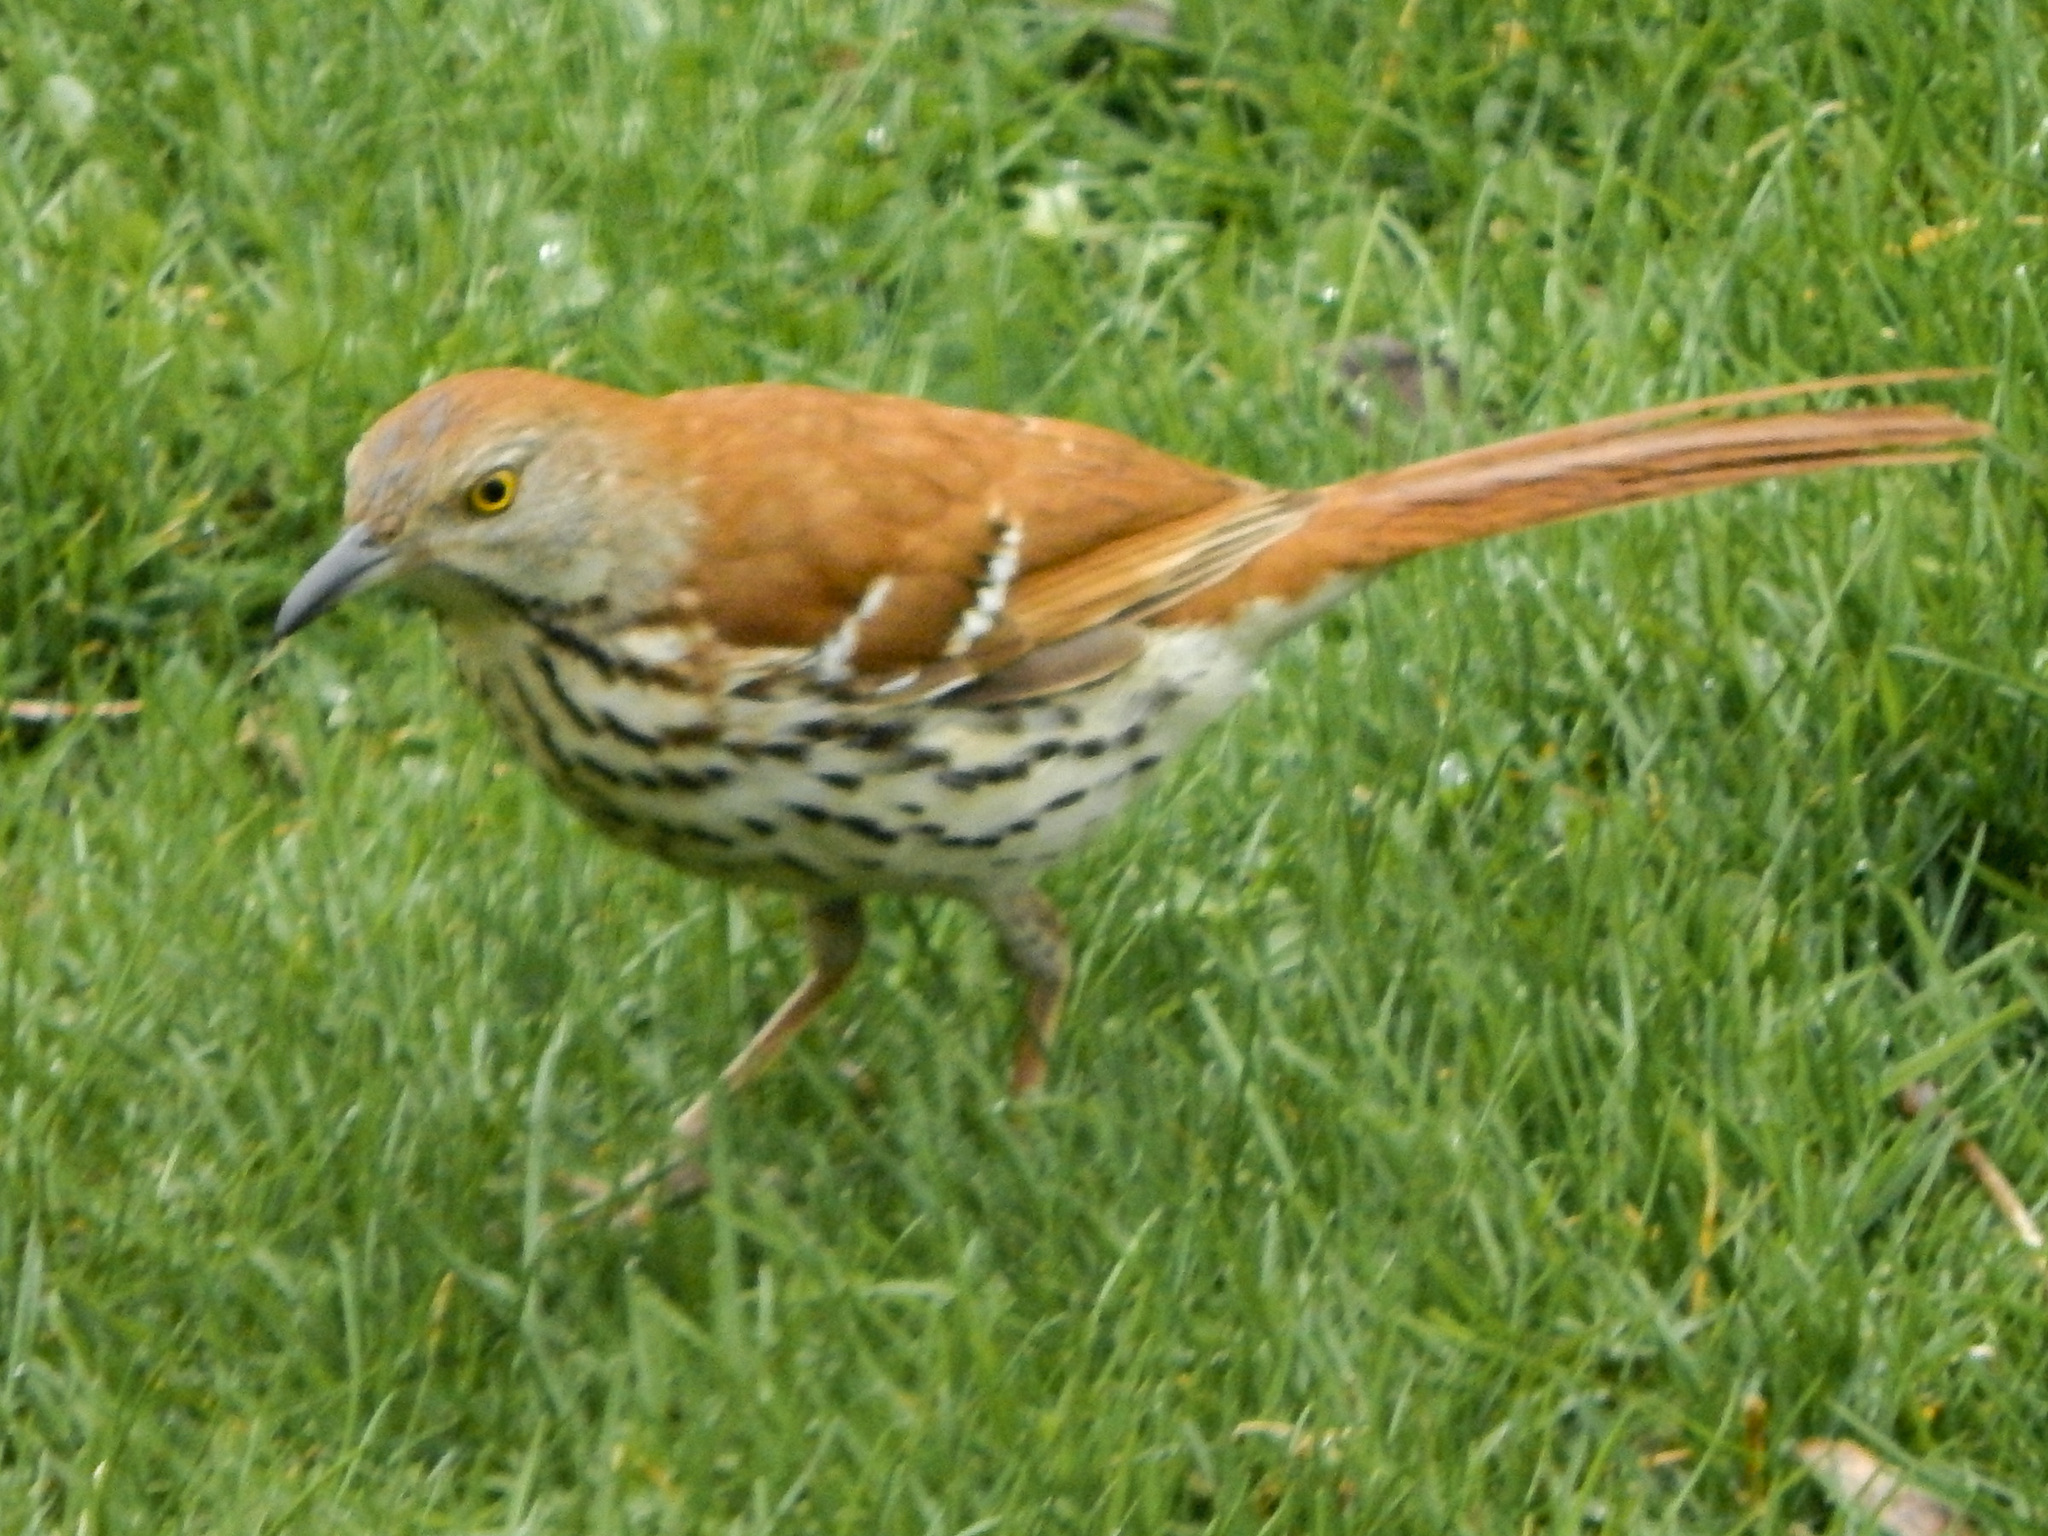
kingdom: Animalia
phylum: Chordata
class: Aves
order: Passeriformes
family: Mimidae
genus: Toxostoma
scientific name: Toxostoma rufum
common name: Brown thrasher
